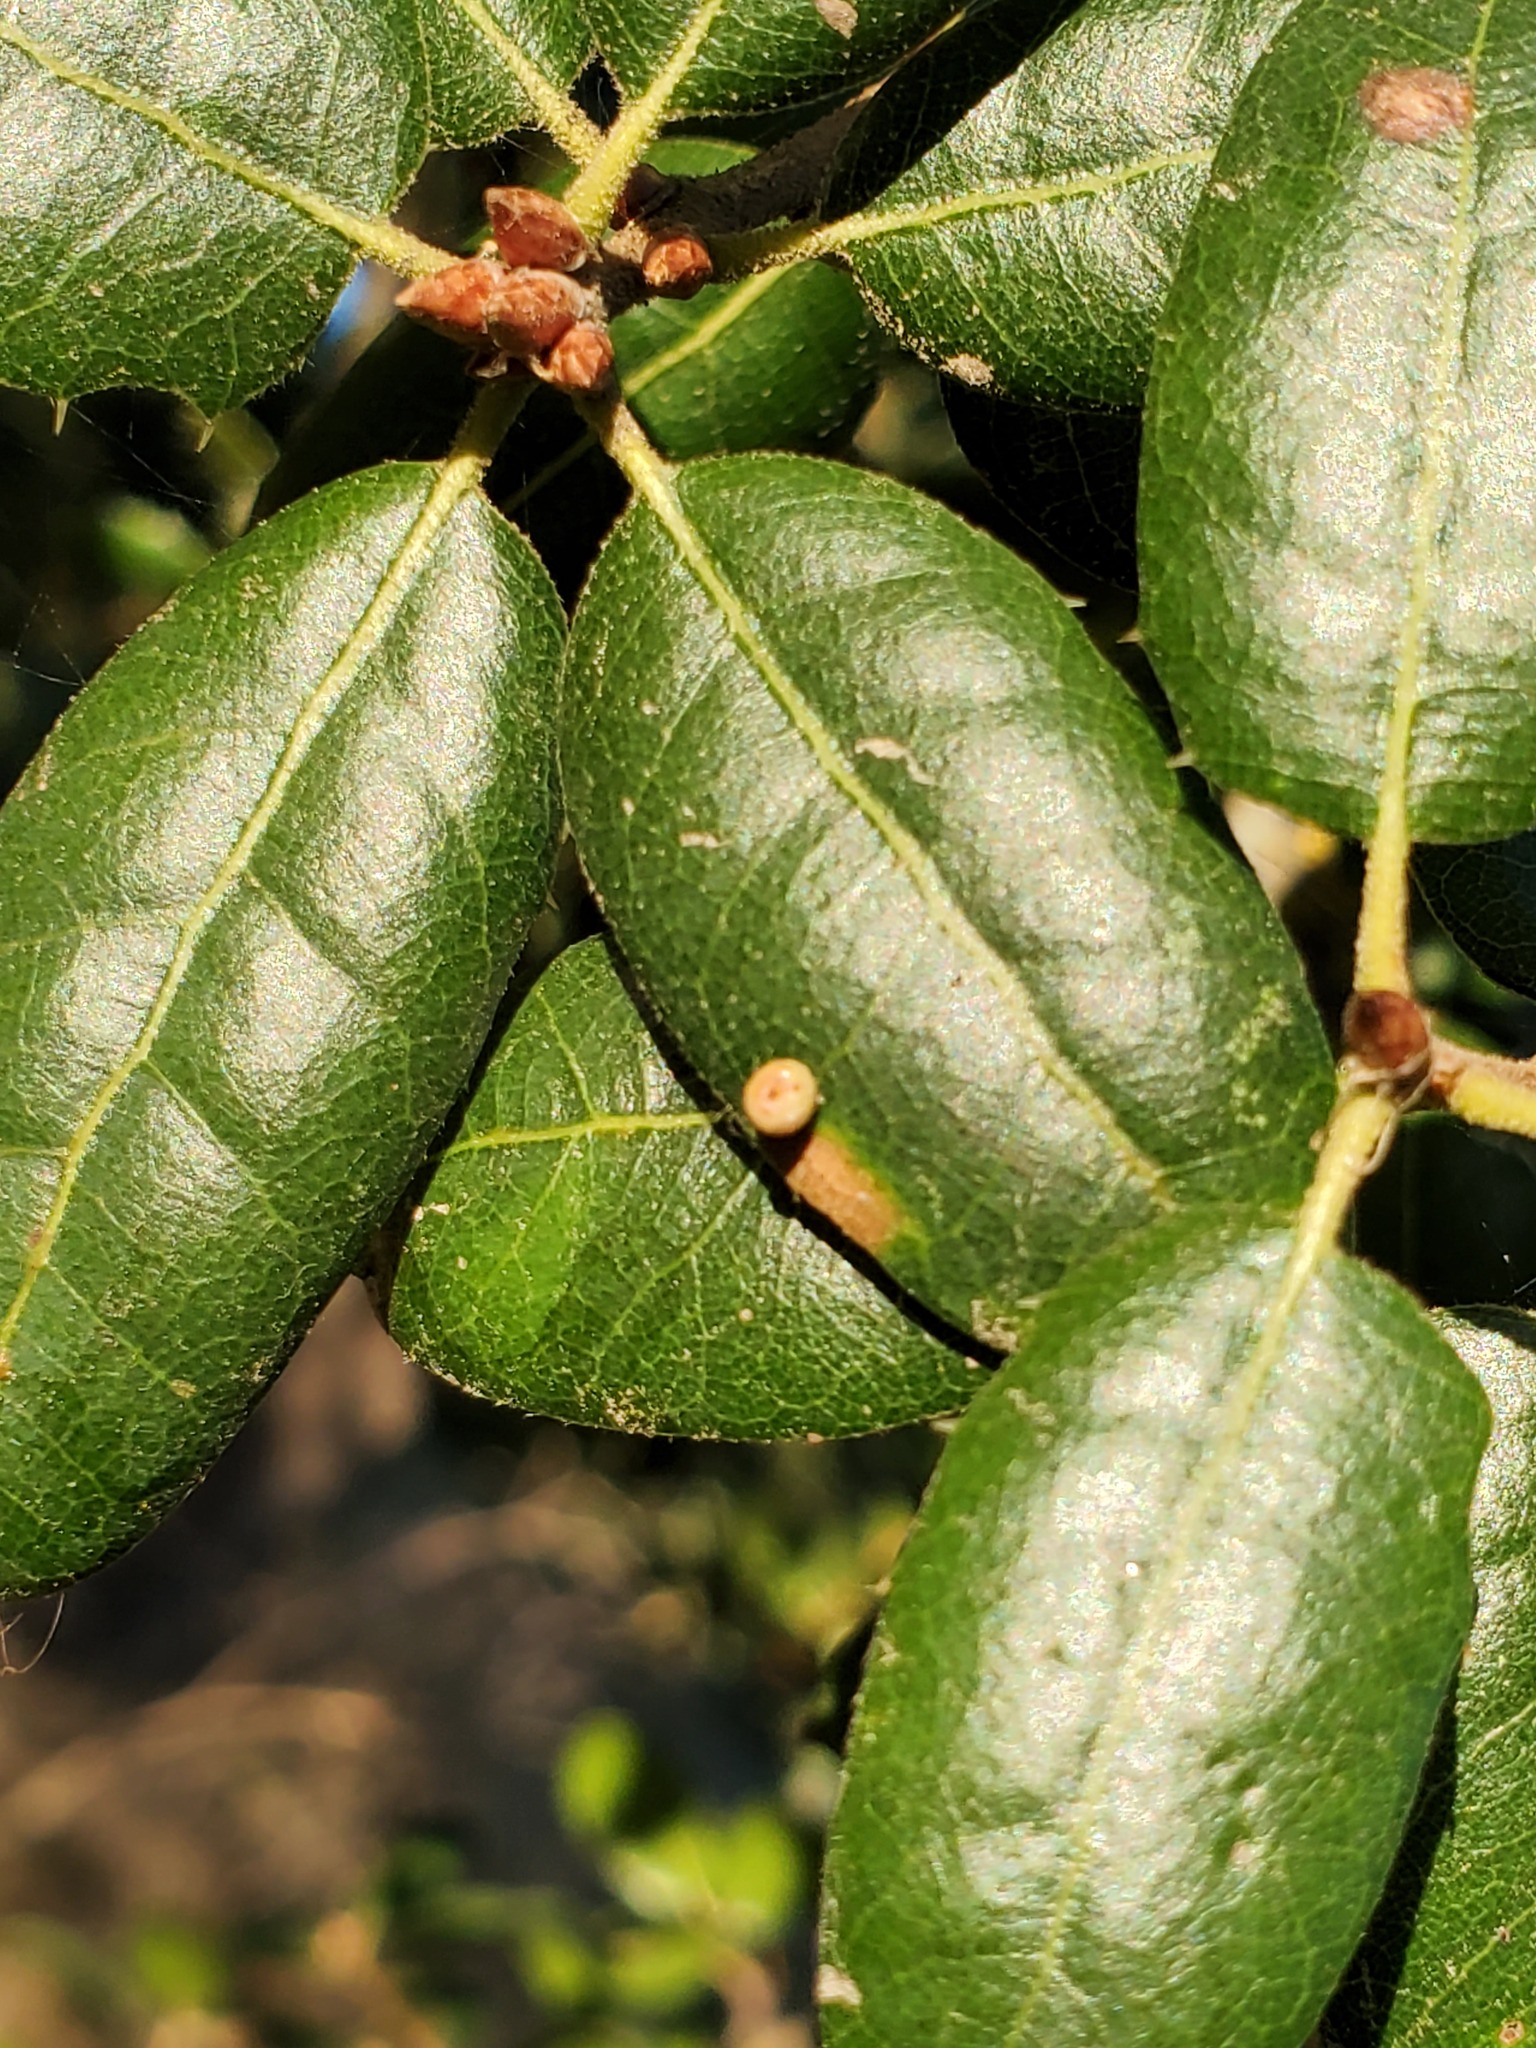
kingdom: Plantae
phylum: Tracheophyta
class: Magnoliopsida
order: Fagales
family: Fagaceae
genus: Quercus
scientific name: Quercus agrifolia
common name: California live oak
